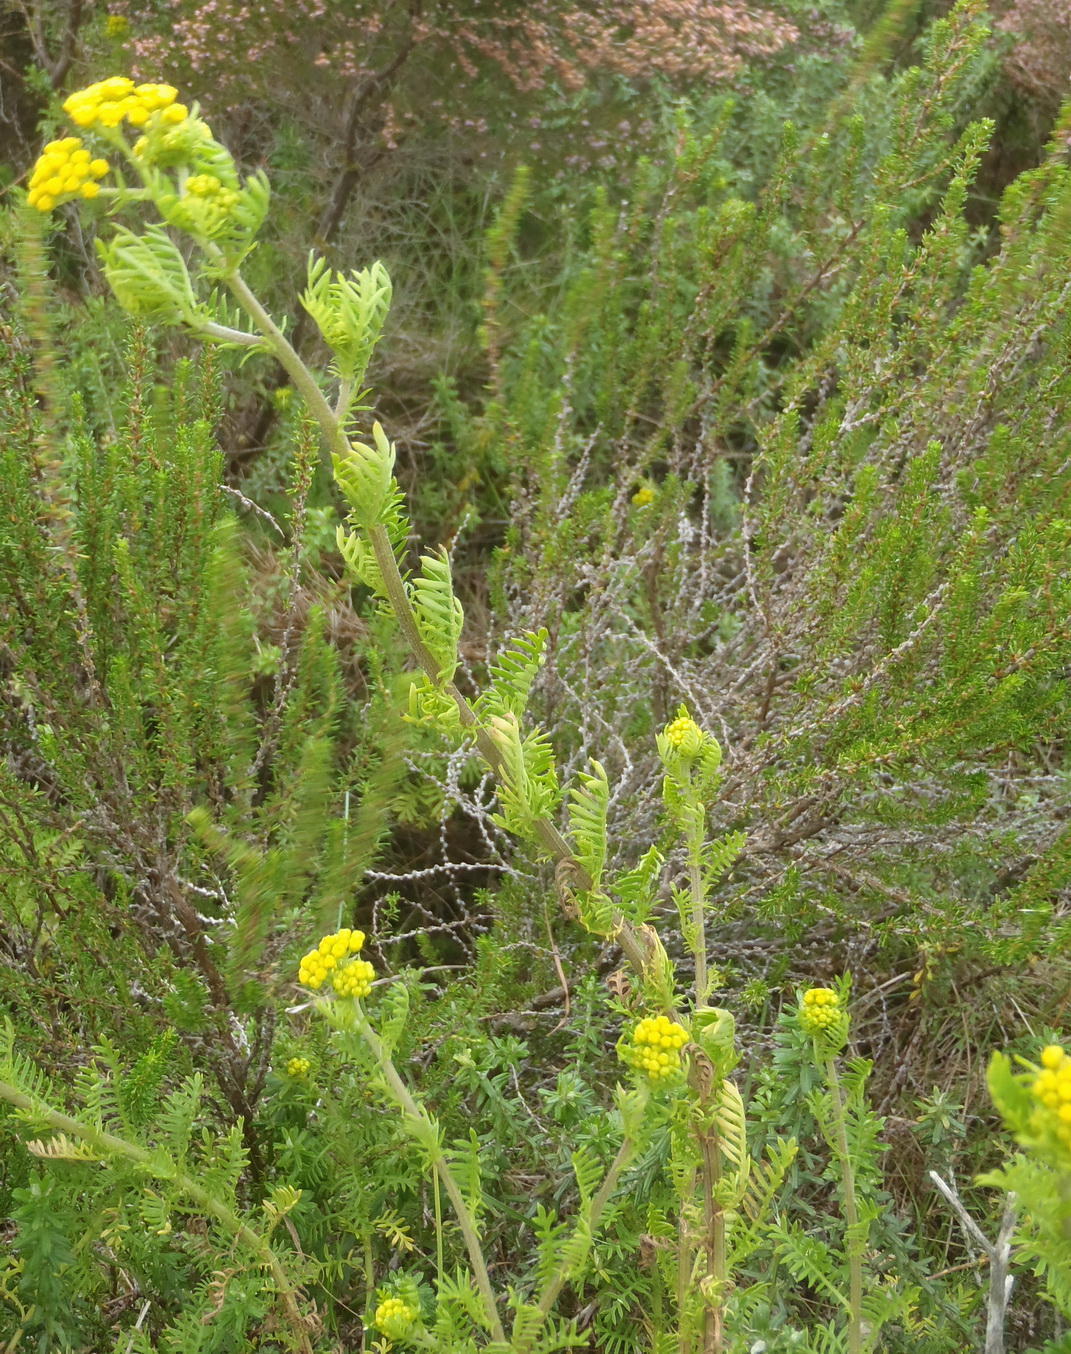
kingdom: Plantae
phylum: Tracheophyta
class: Magnoliopsida
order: Asterales
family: Asteraceae
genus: Hippia
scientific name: Hippia frutescens
